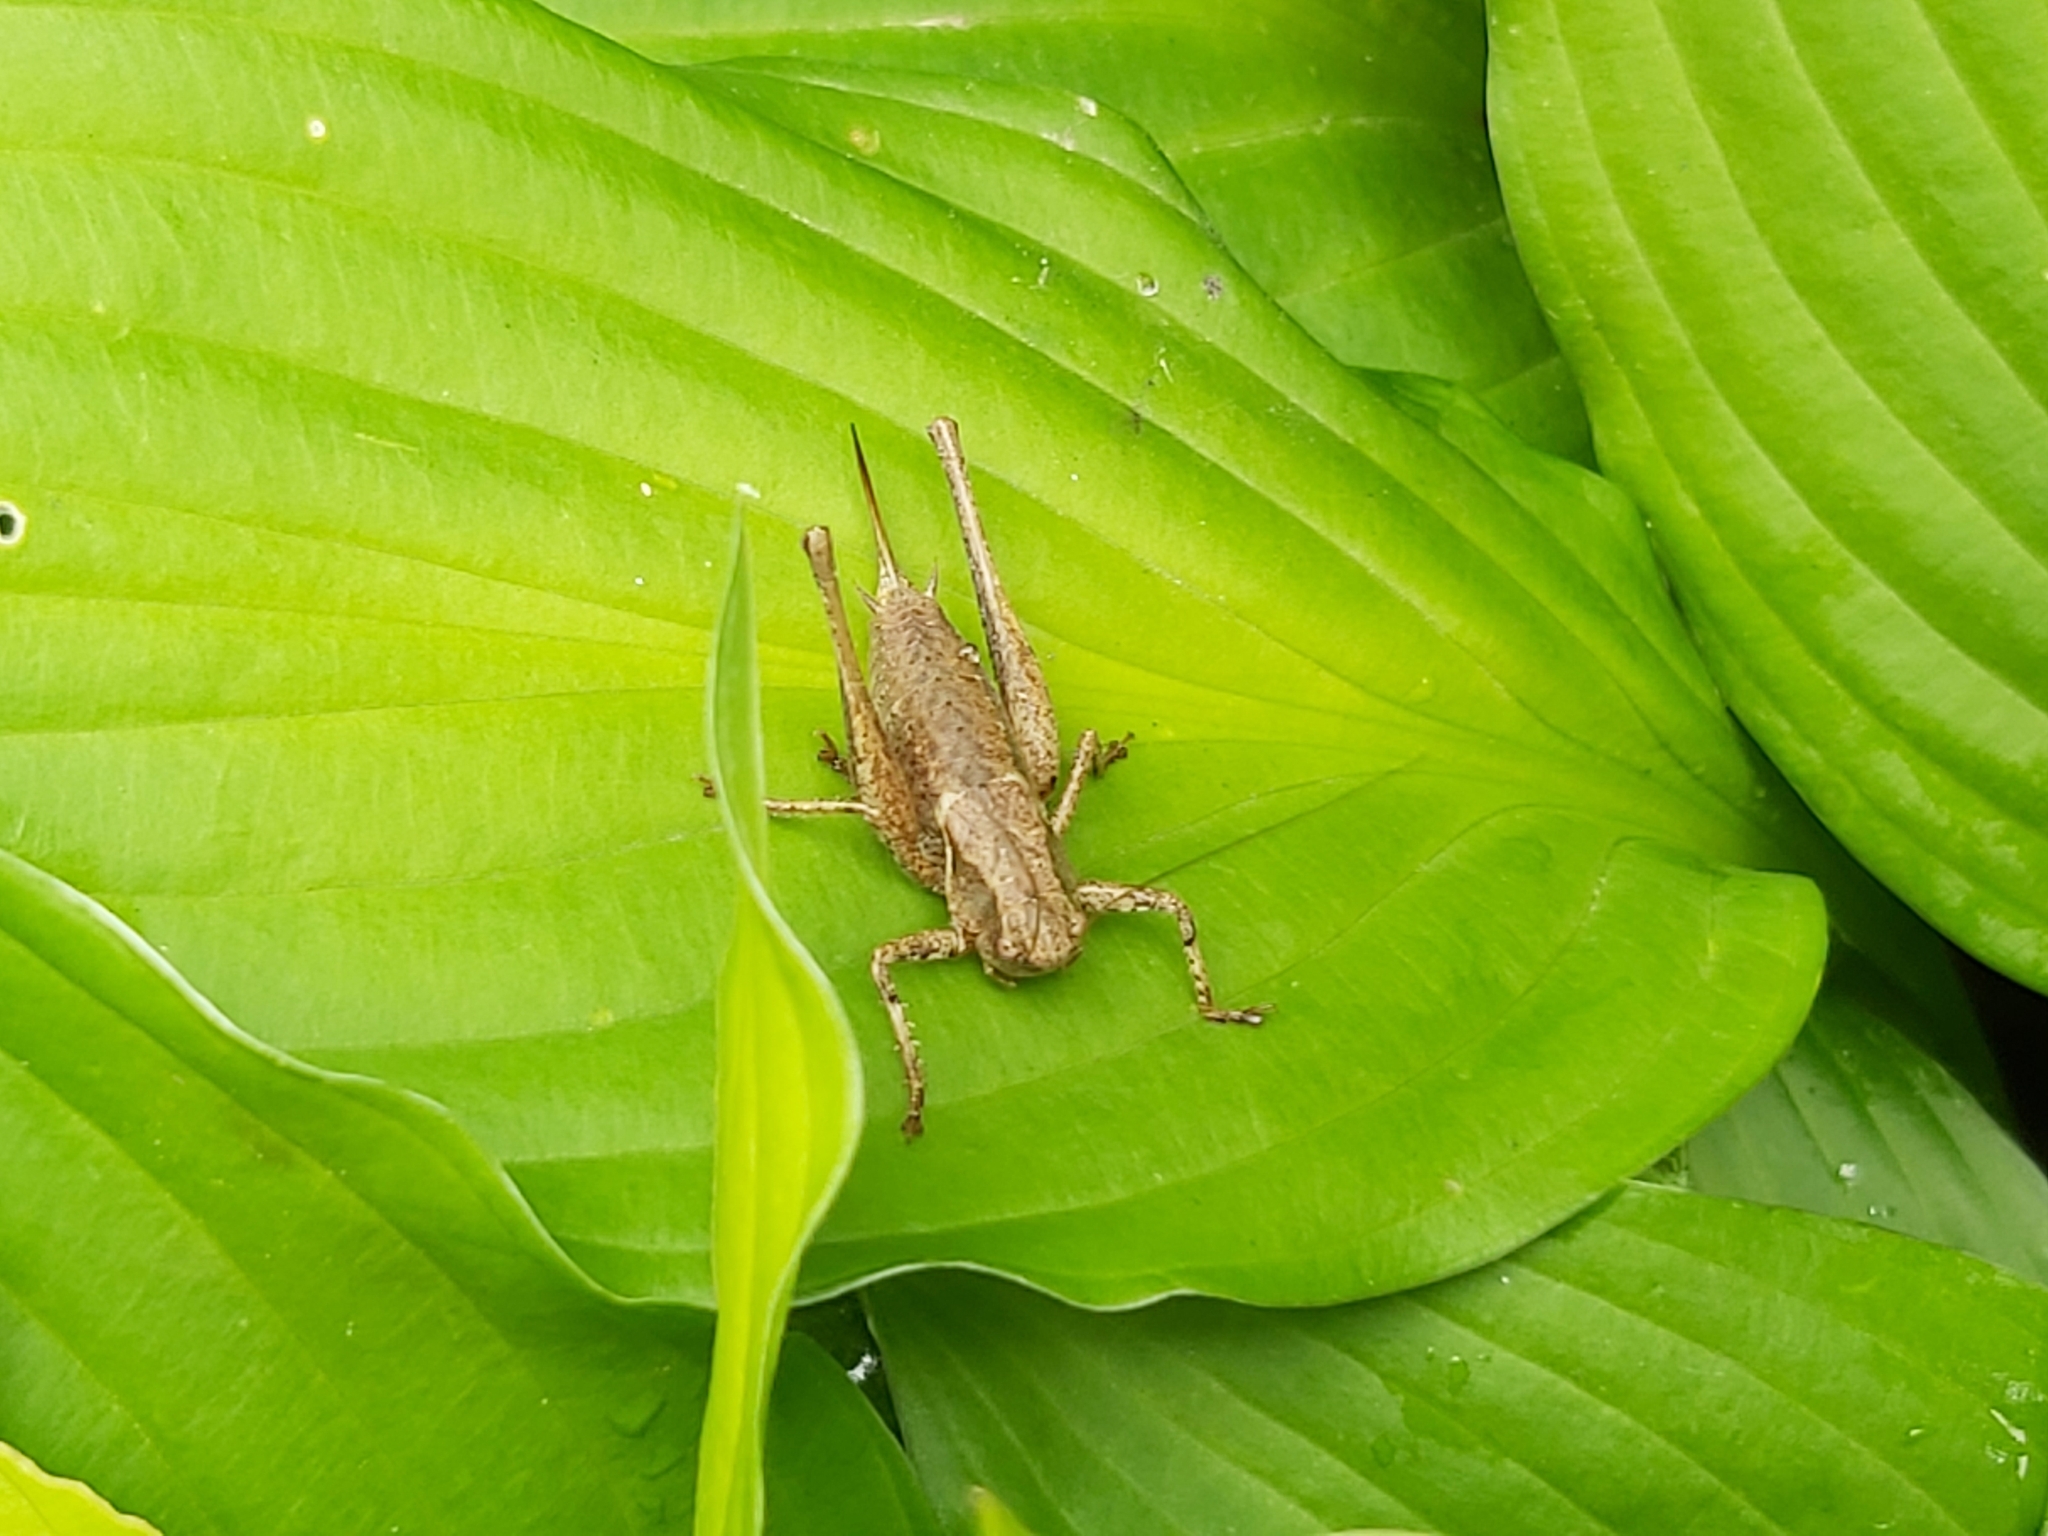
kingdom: Animalia
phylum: Arthropoda
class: Insecta
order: Orthoptera
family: Tettigoniidae
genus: Pholidoptera
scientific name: Pholidoptera griseoaptera
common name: Dark bush-cricket
